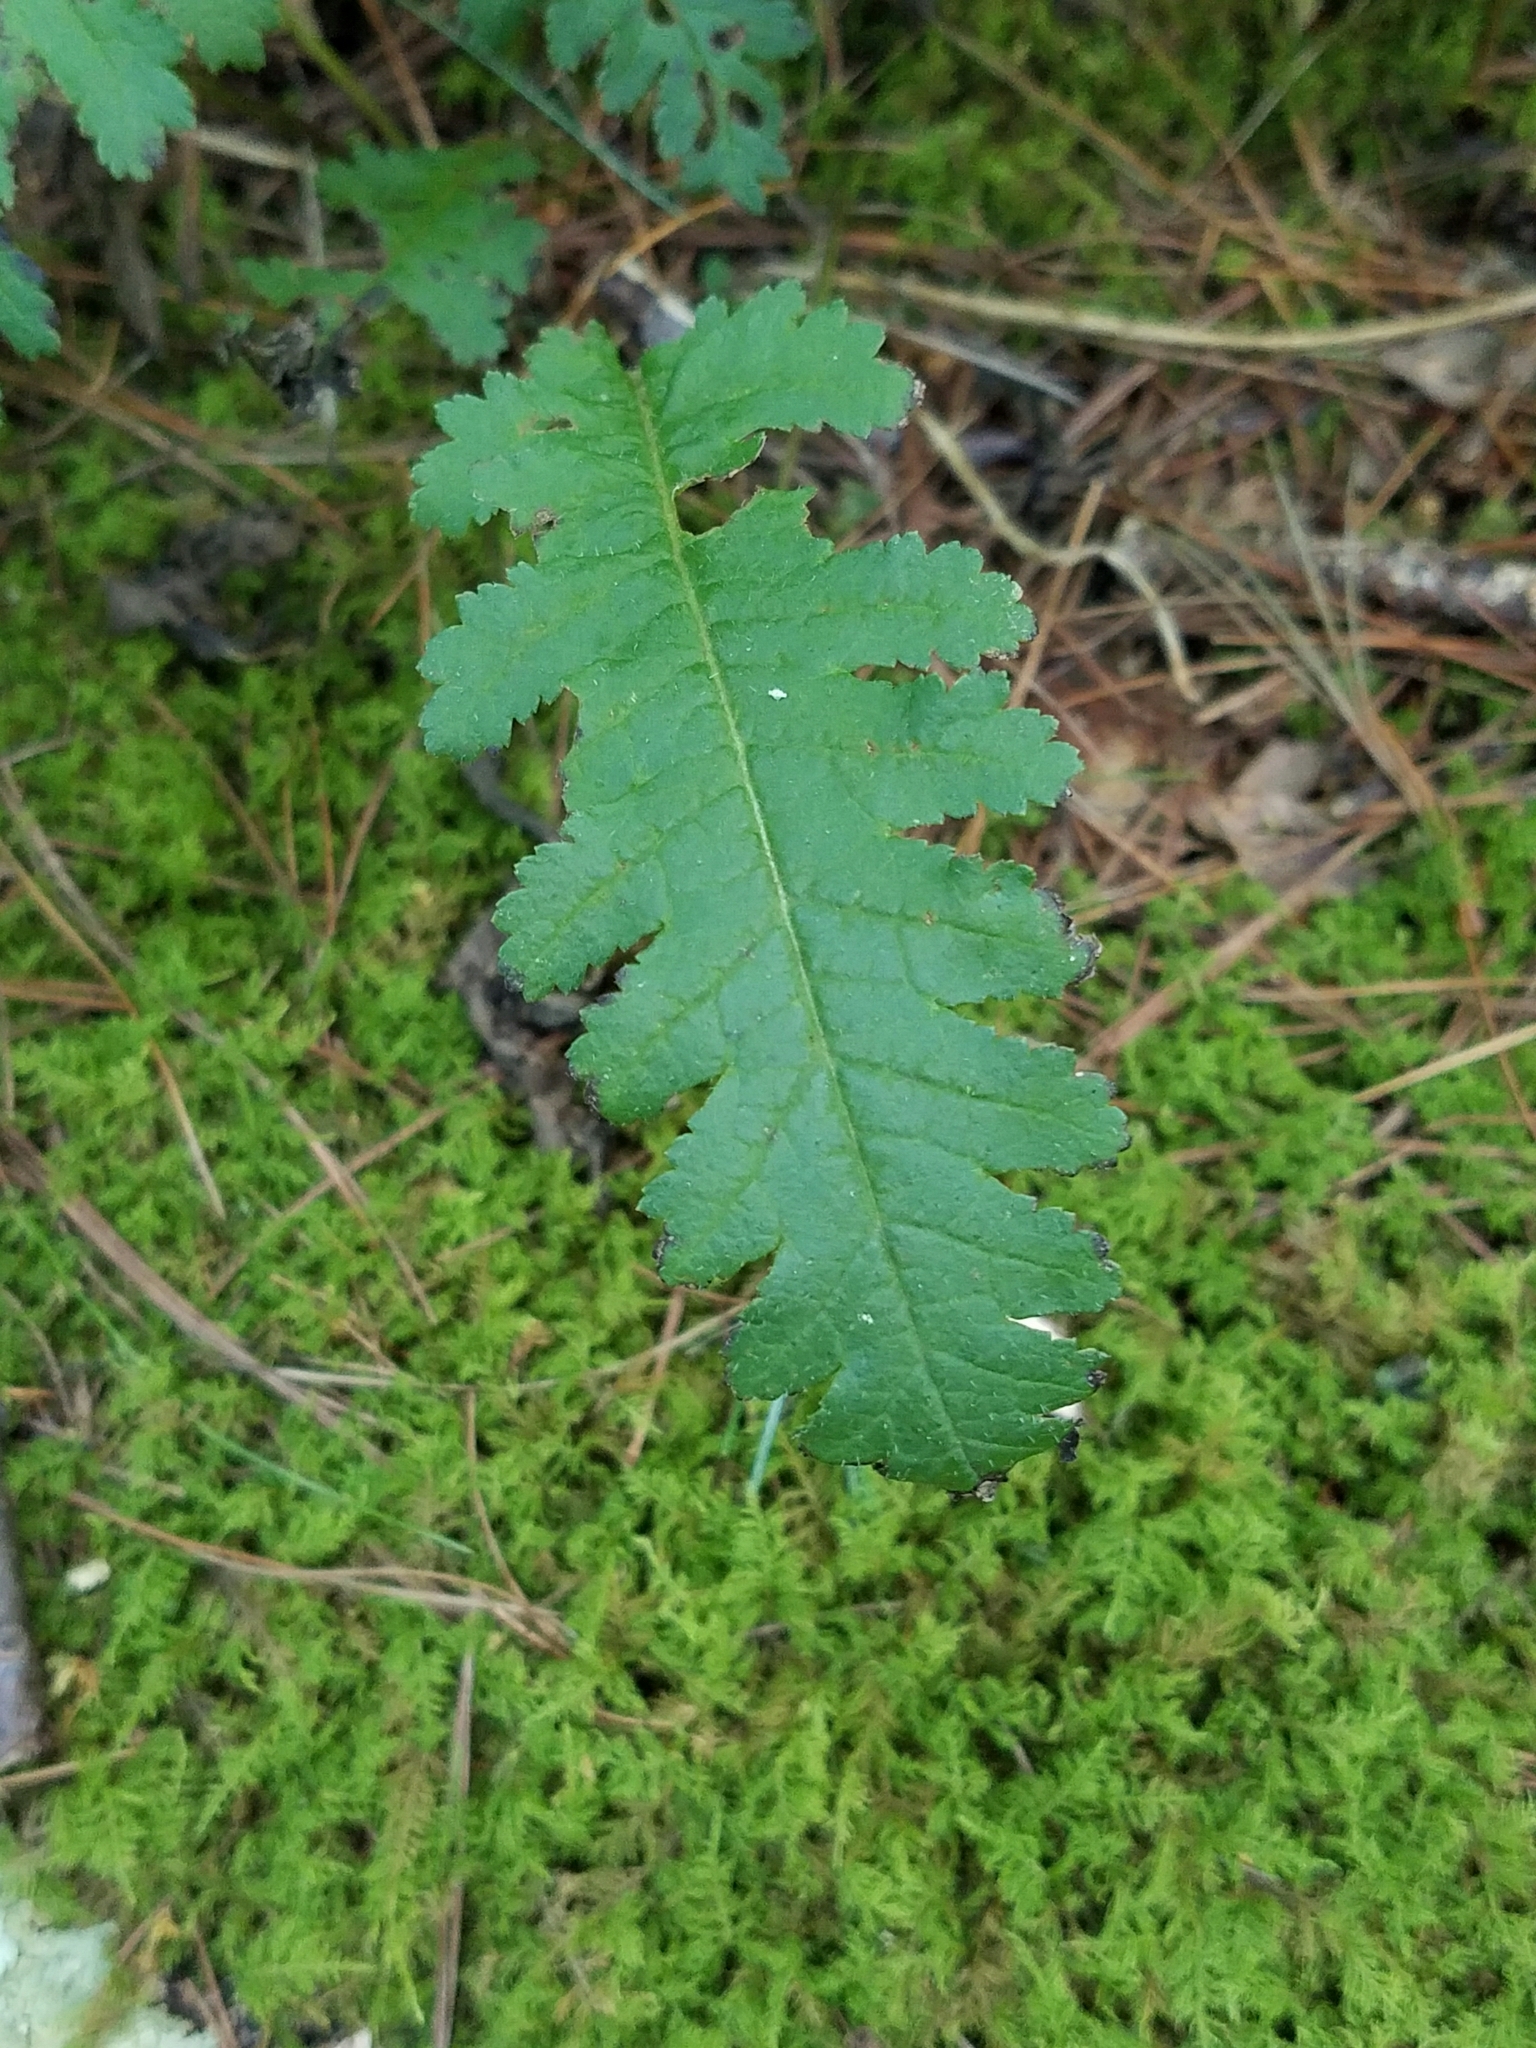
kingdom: Plantae
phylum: Tracheophyta
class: Magnoliopsida
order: Lamiales
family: Orobanchaceae
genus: Pedicularis
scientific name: Pedicularis canadensis
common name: Early lousewort
